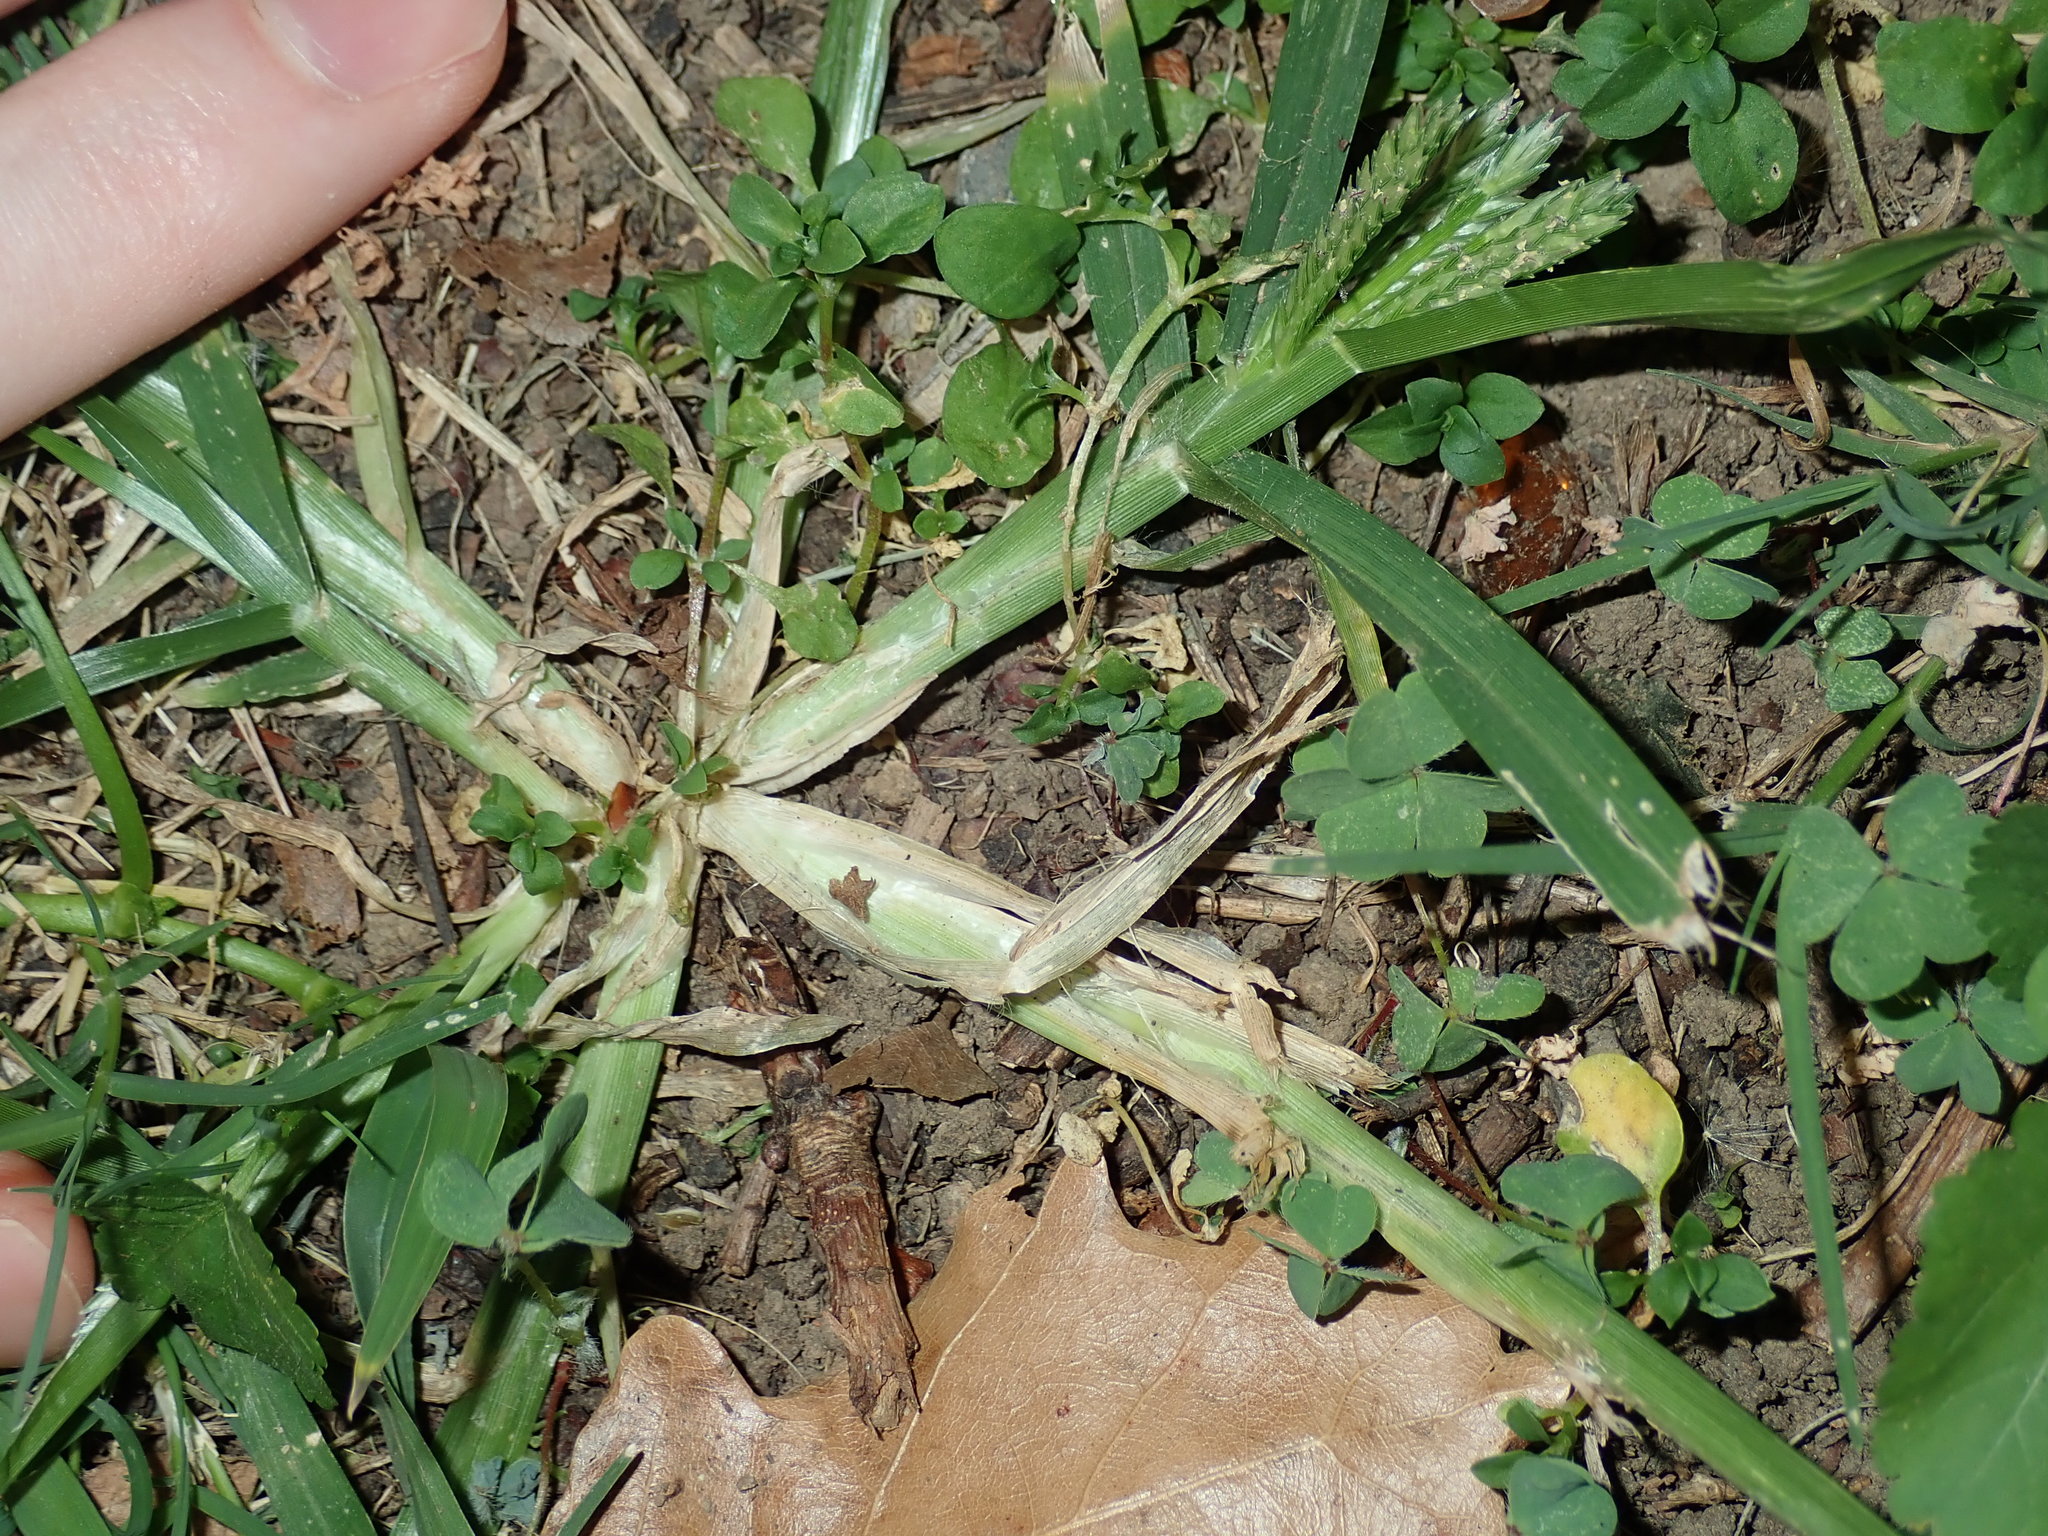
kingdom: Plantae
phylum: Tracheophyta
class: Liliopsida
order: Poales
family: Poaceae
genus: Eleusine
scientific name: Eleusine indica
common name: Yard-grass
